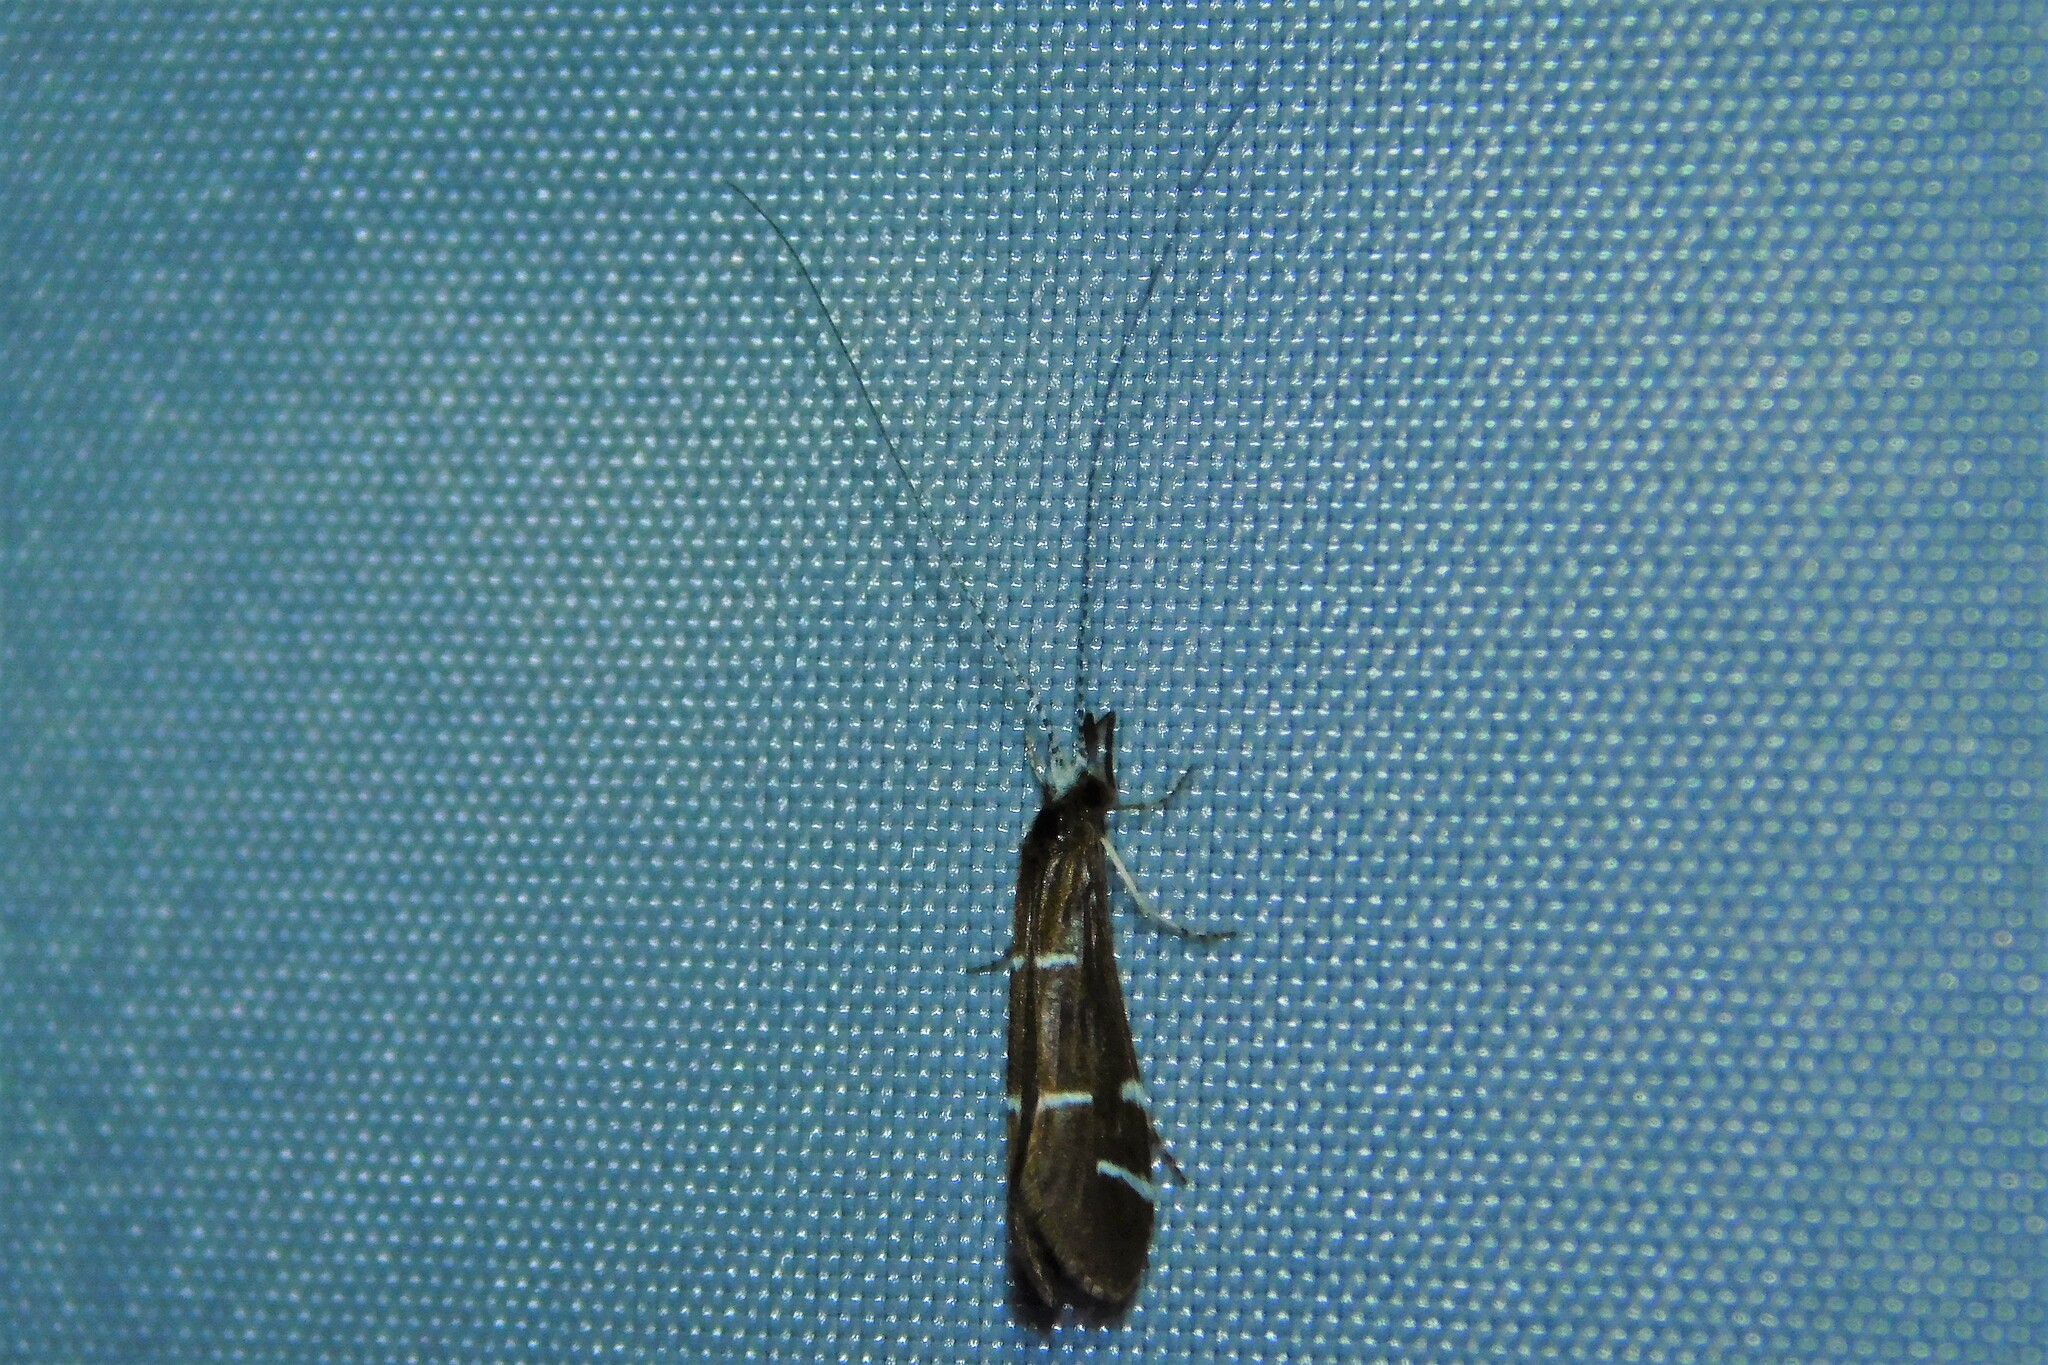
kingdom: Animalia
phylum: Arthropoda
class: Insecta
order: Trichoptera
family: Leptoceridae
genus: Athripsodes
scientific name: Athripsodes albifrons
